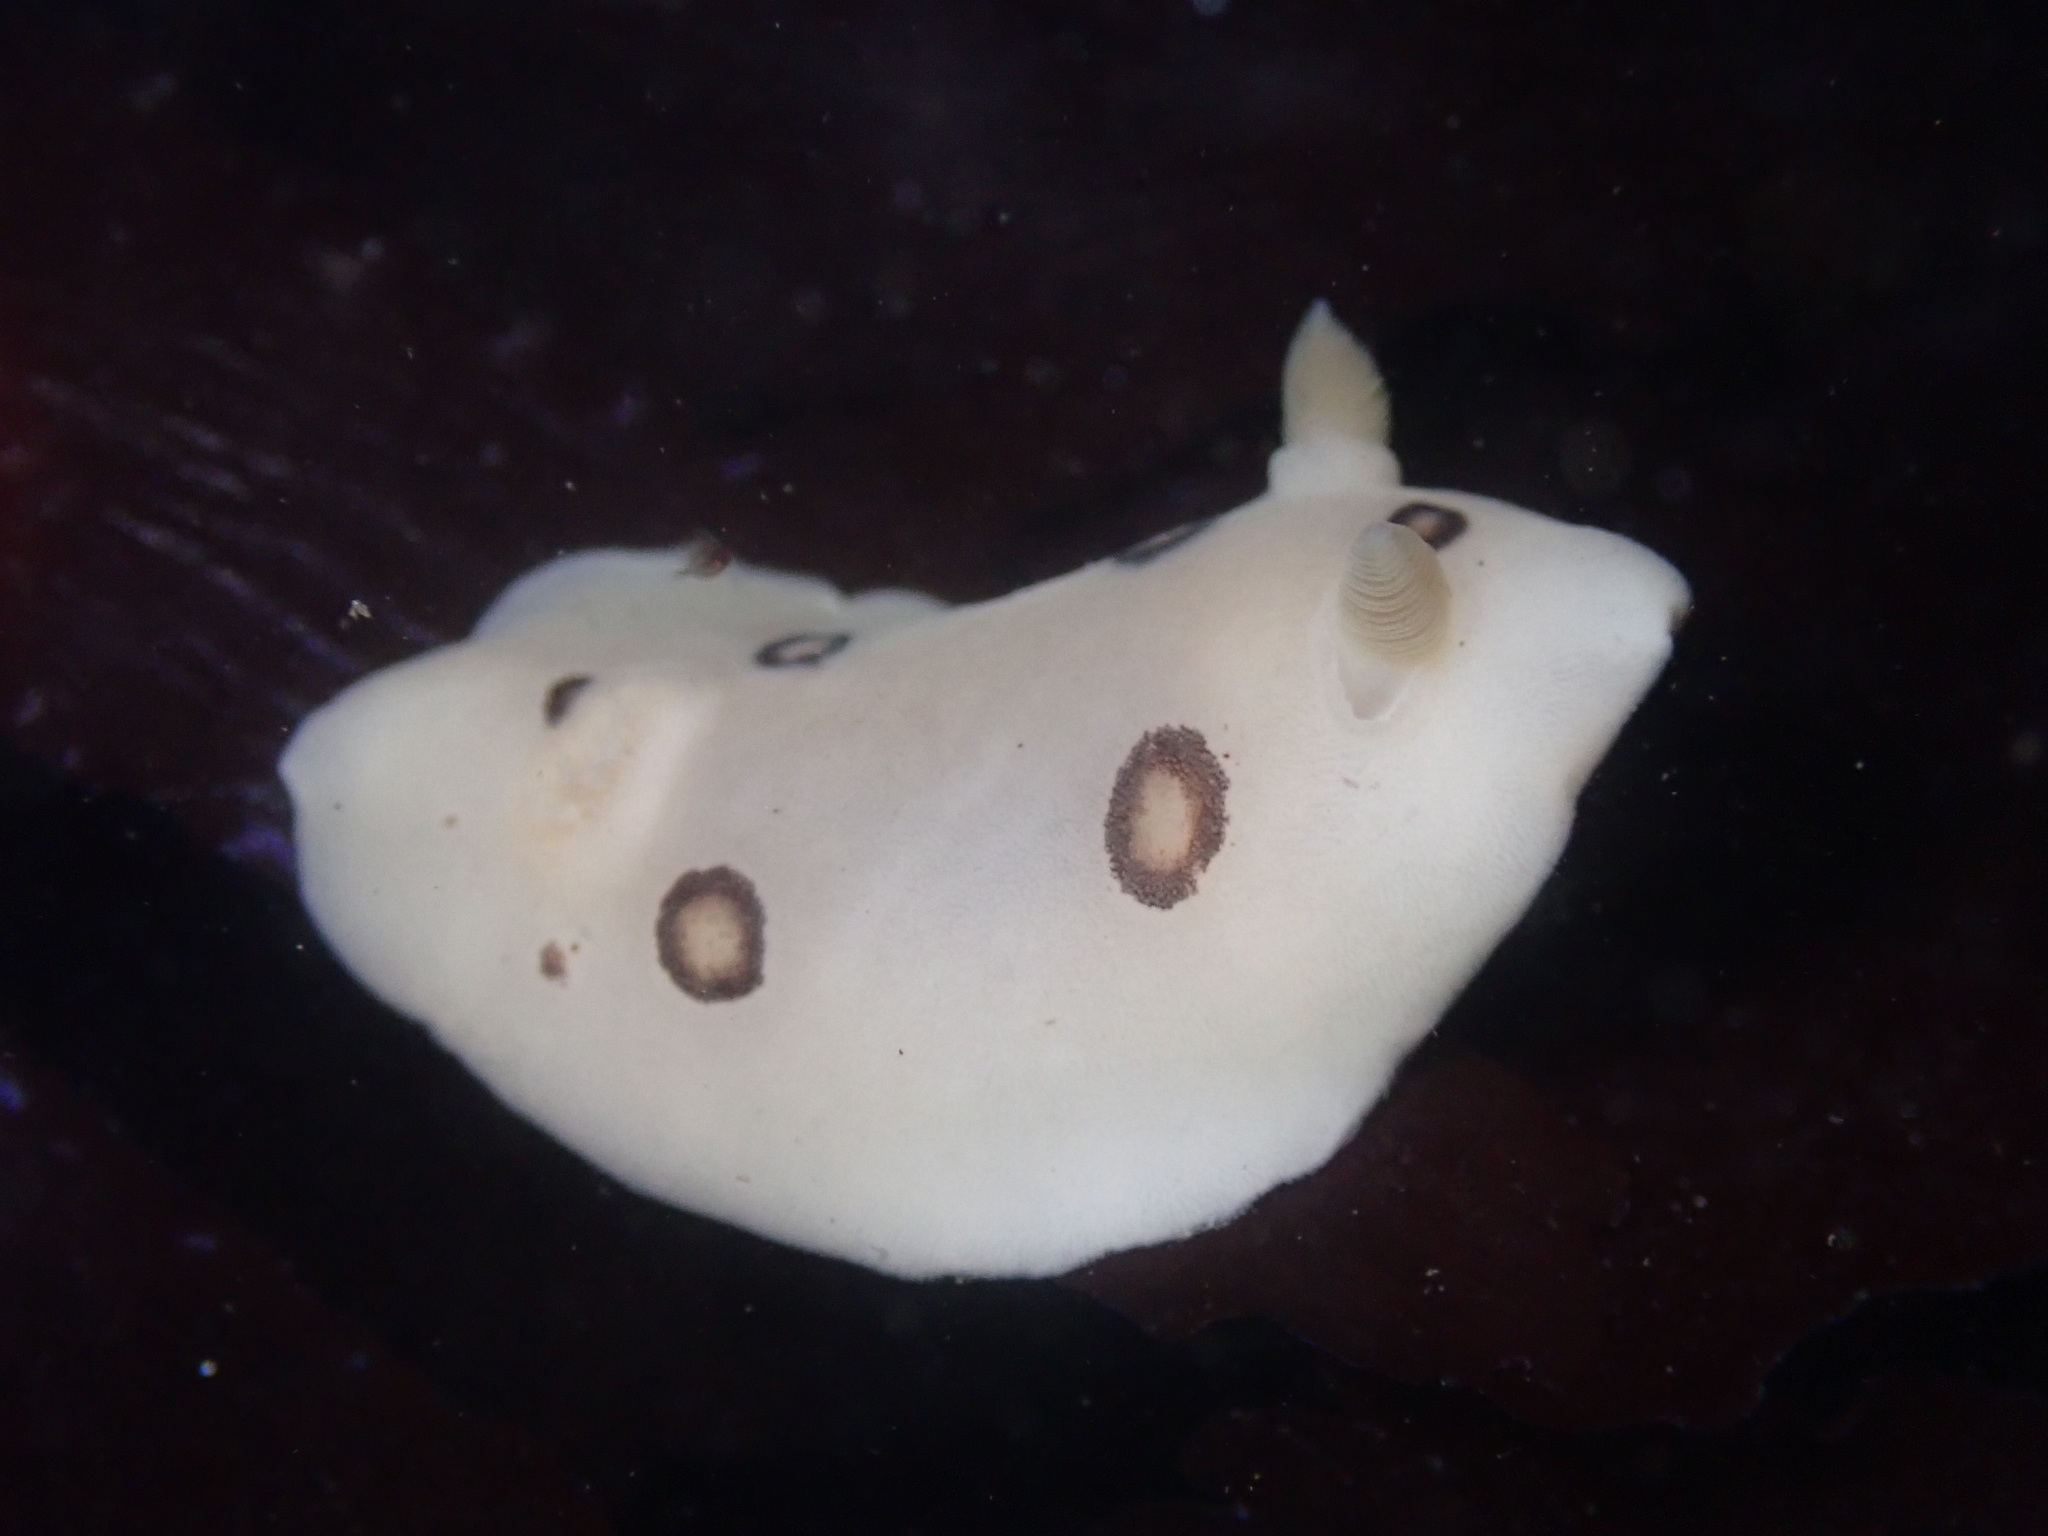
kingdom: Animalia
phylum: Mollusca
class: Gastropoda
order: Nudibranchia
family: Discodorididae
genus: Diaulula
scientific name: Diaulula sandiegensis
